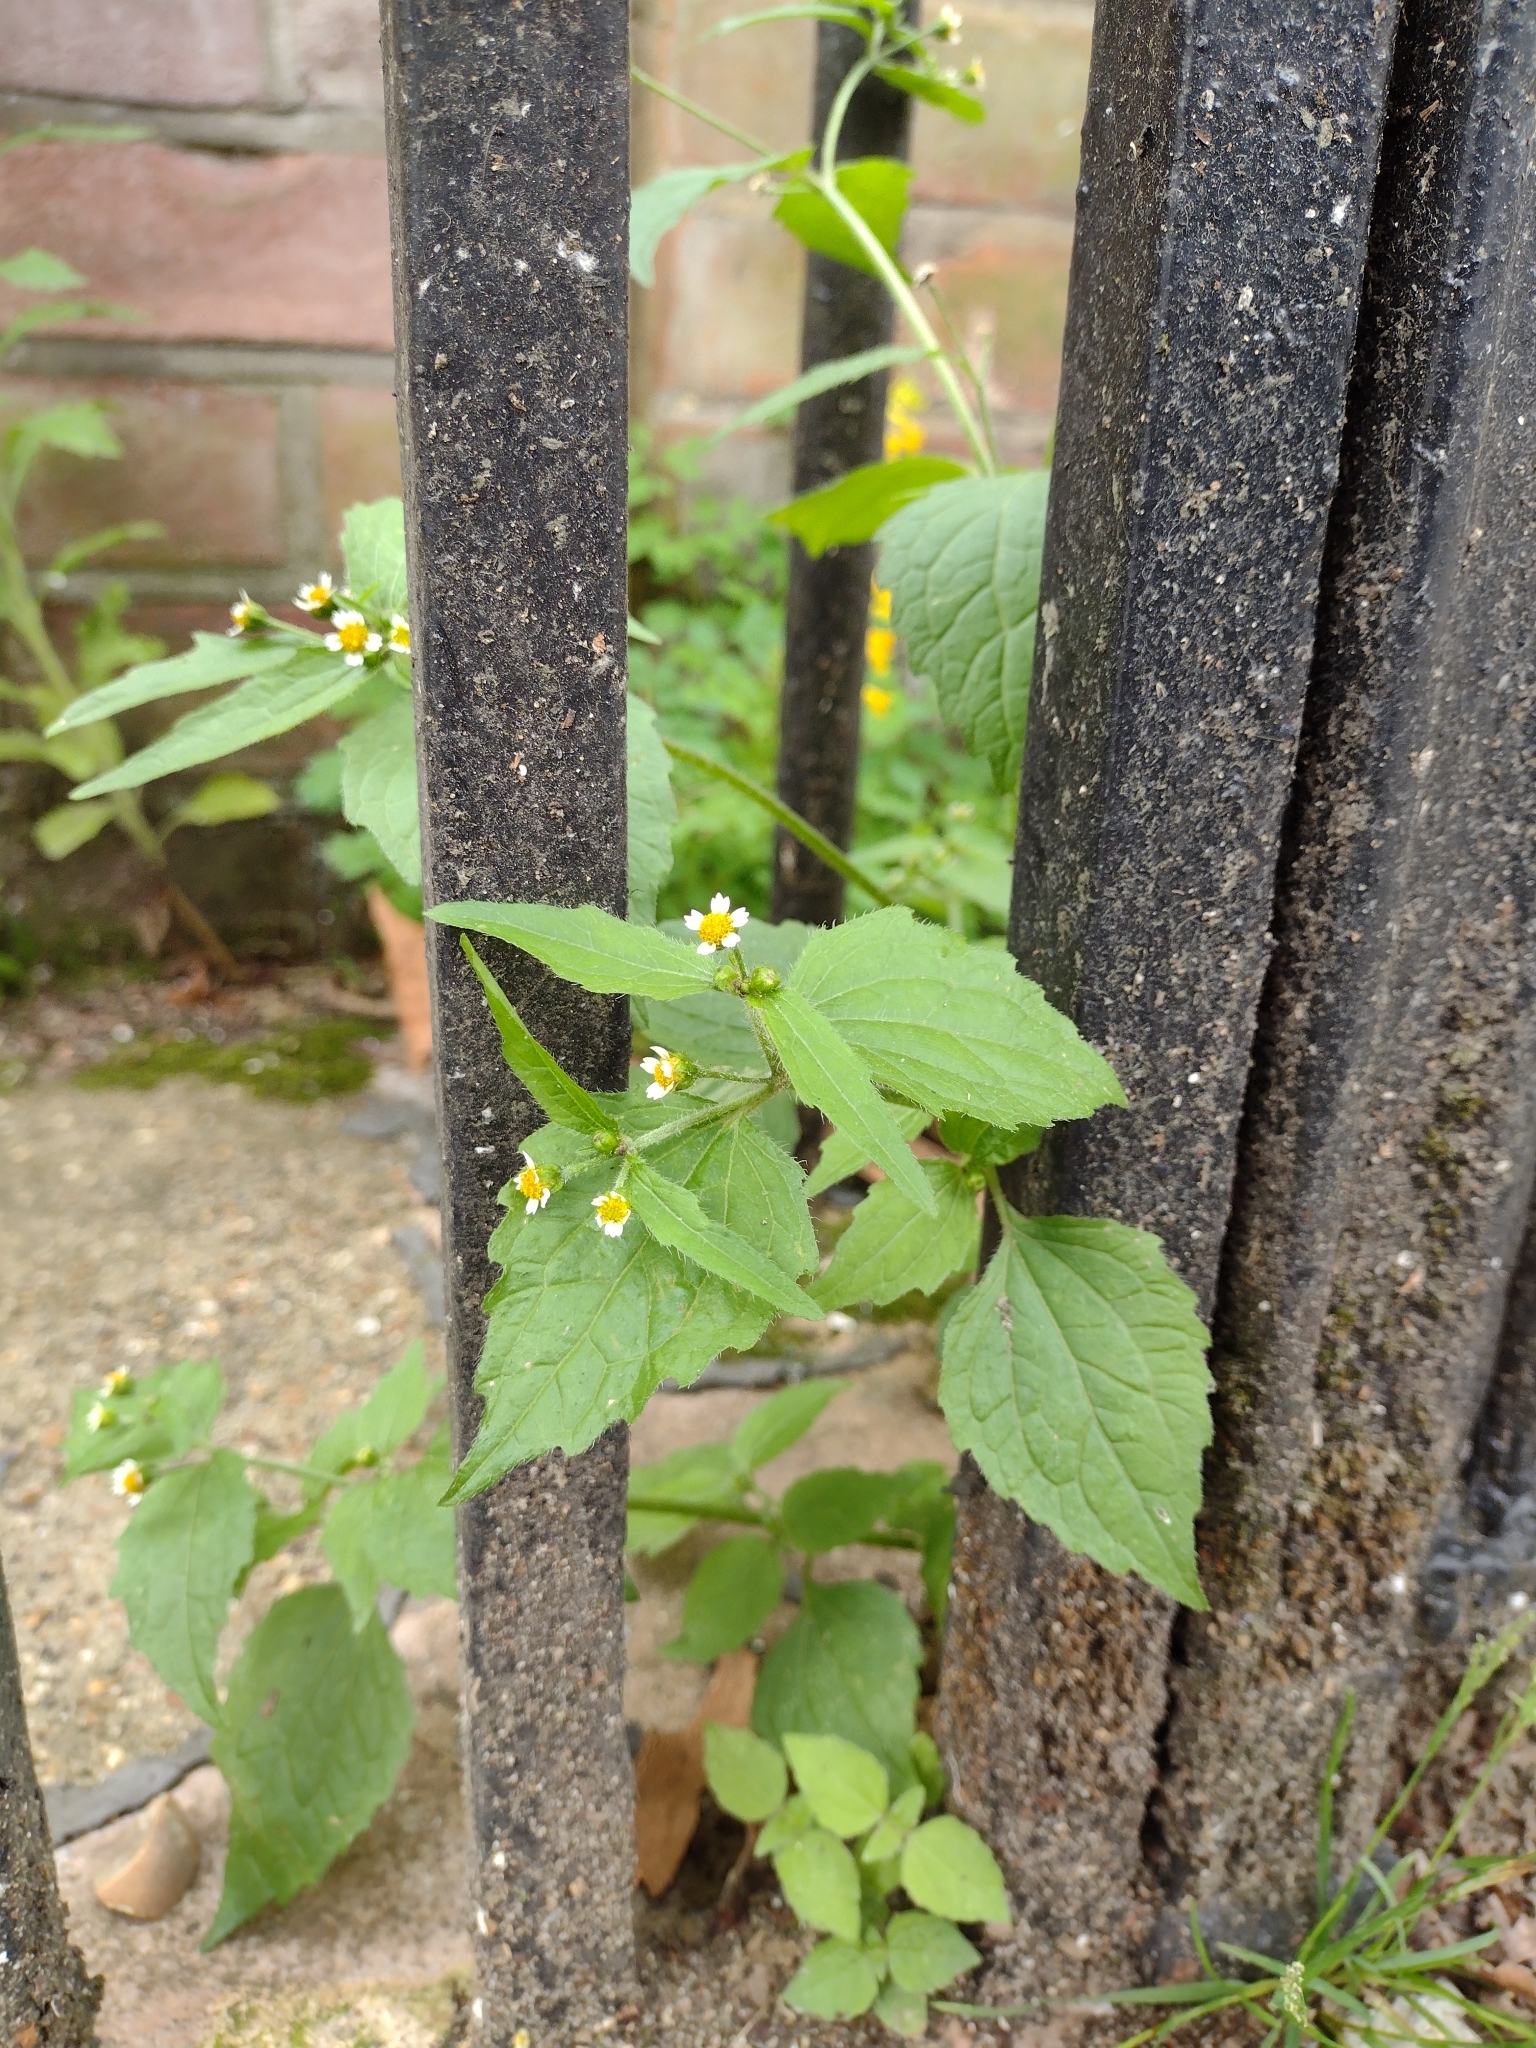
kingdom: Plantae
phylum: Tracheophyta
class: Magnoliopsida
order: Asterales
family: Asteraceae
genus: Galinsoga
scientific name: Galinsoga quadriradiata
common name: Shaggy soldier
